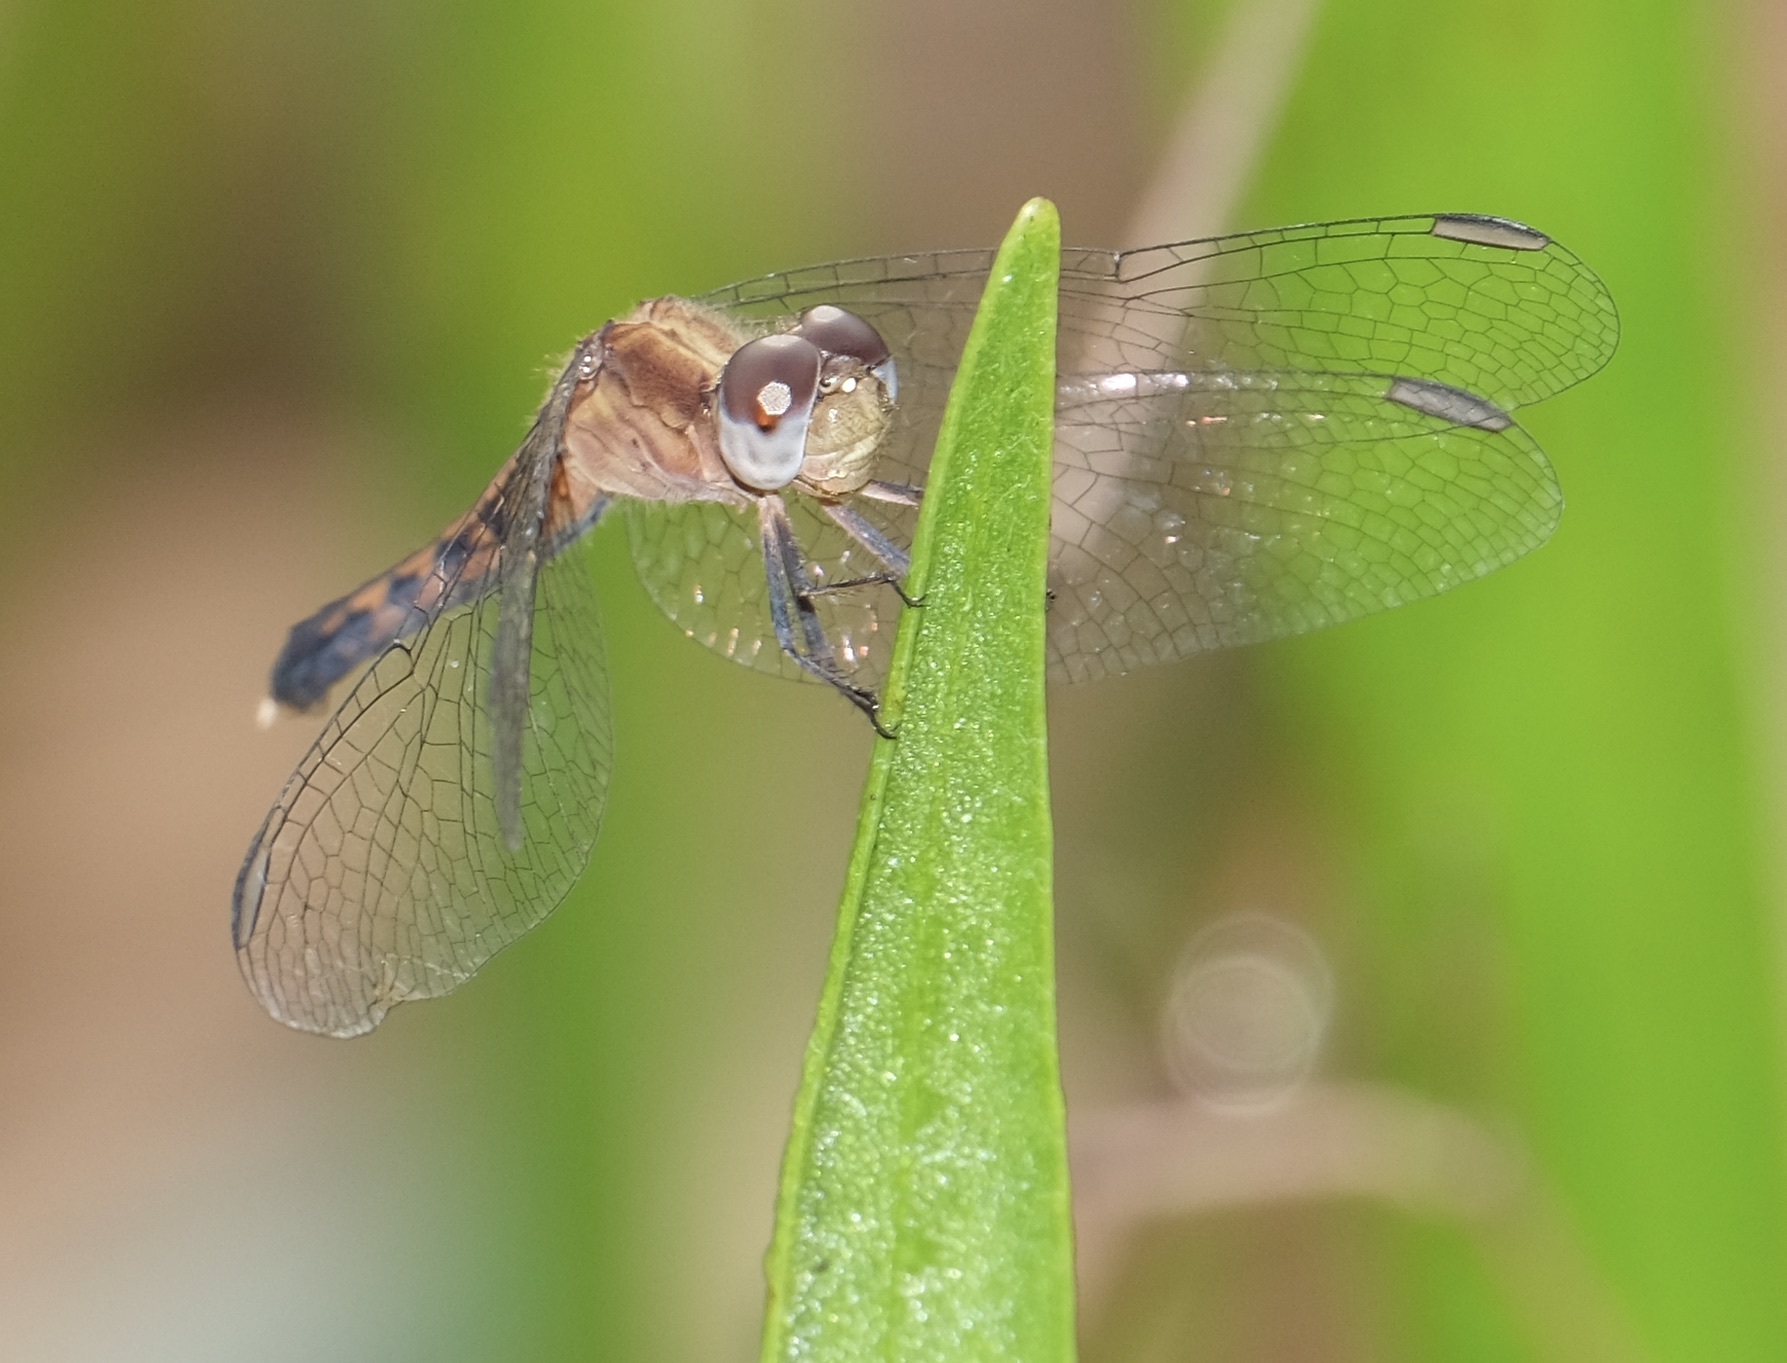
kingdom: Animalia
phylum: Arthropoda
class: Insecta
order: Odonata
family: Libellulidae
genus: Erythrodiplax
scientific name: Erythrodiplax minuscula
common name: Little blue dragonlet
